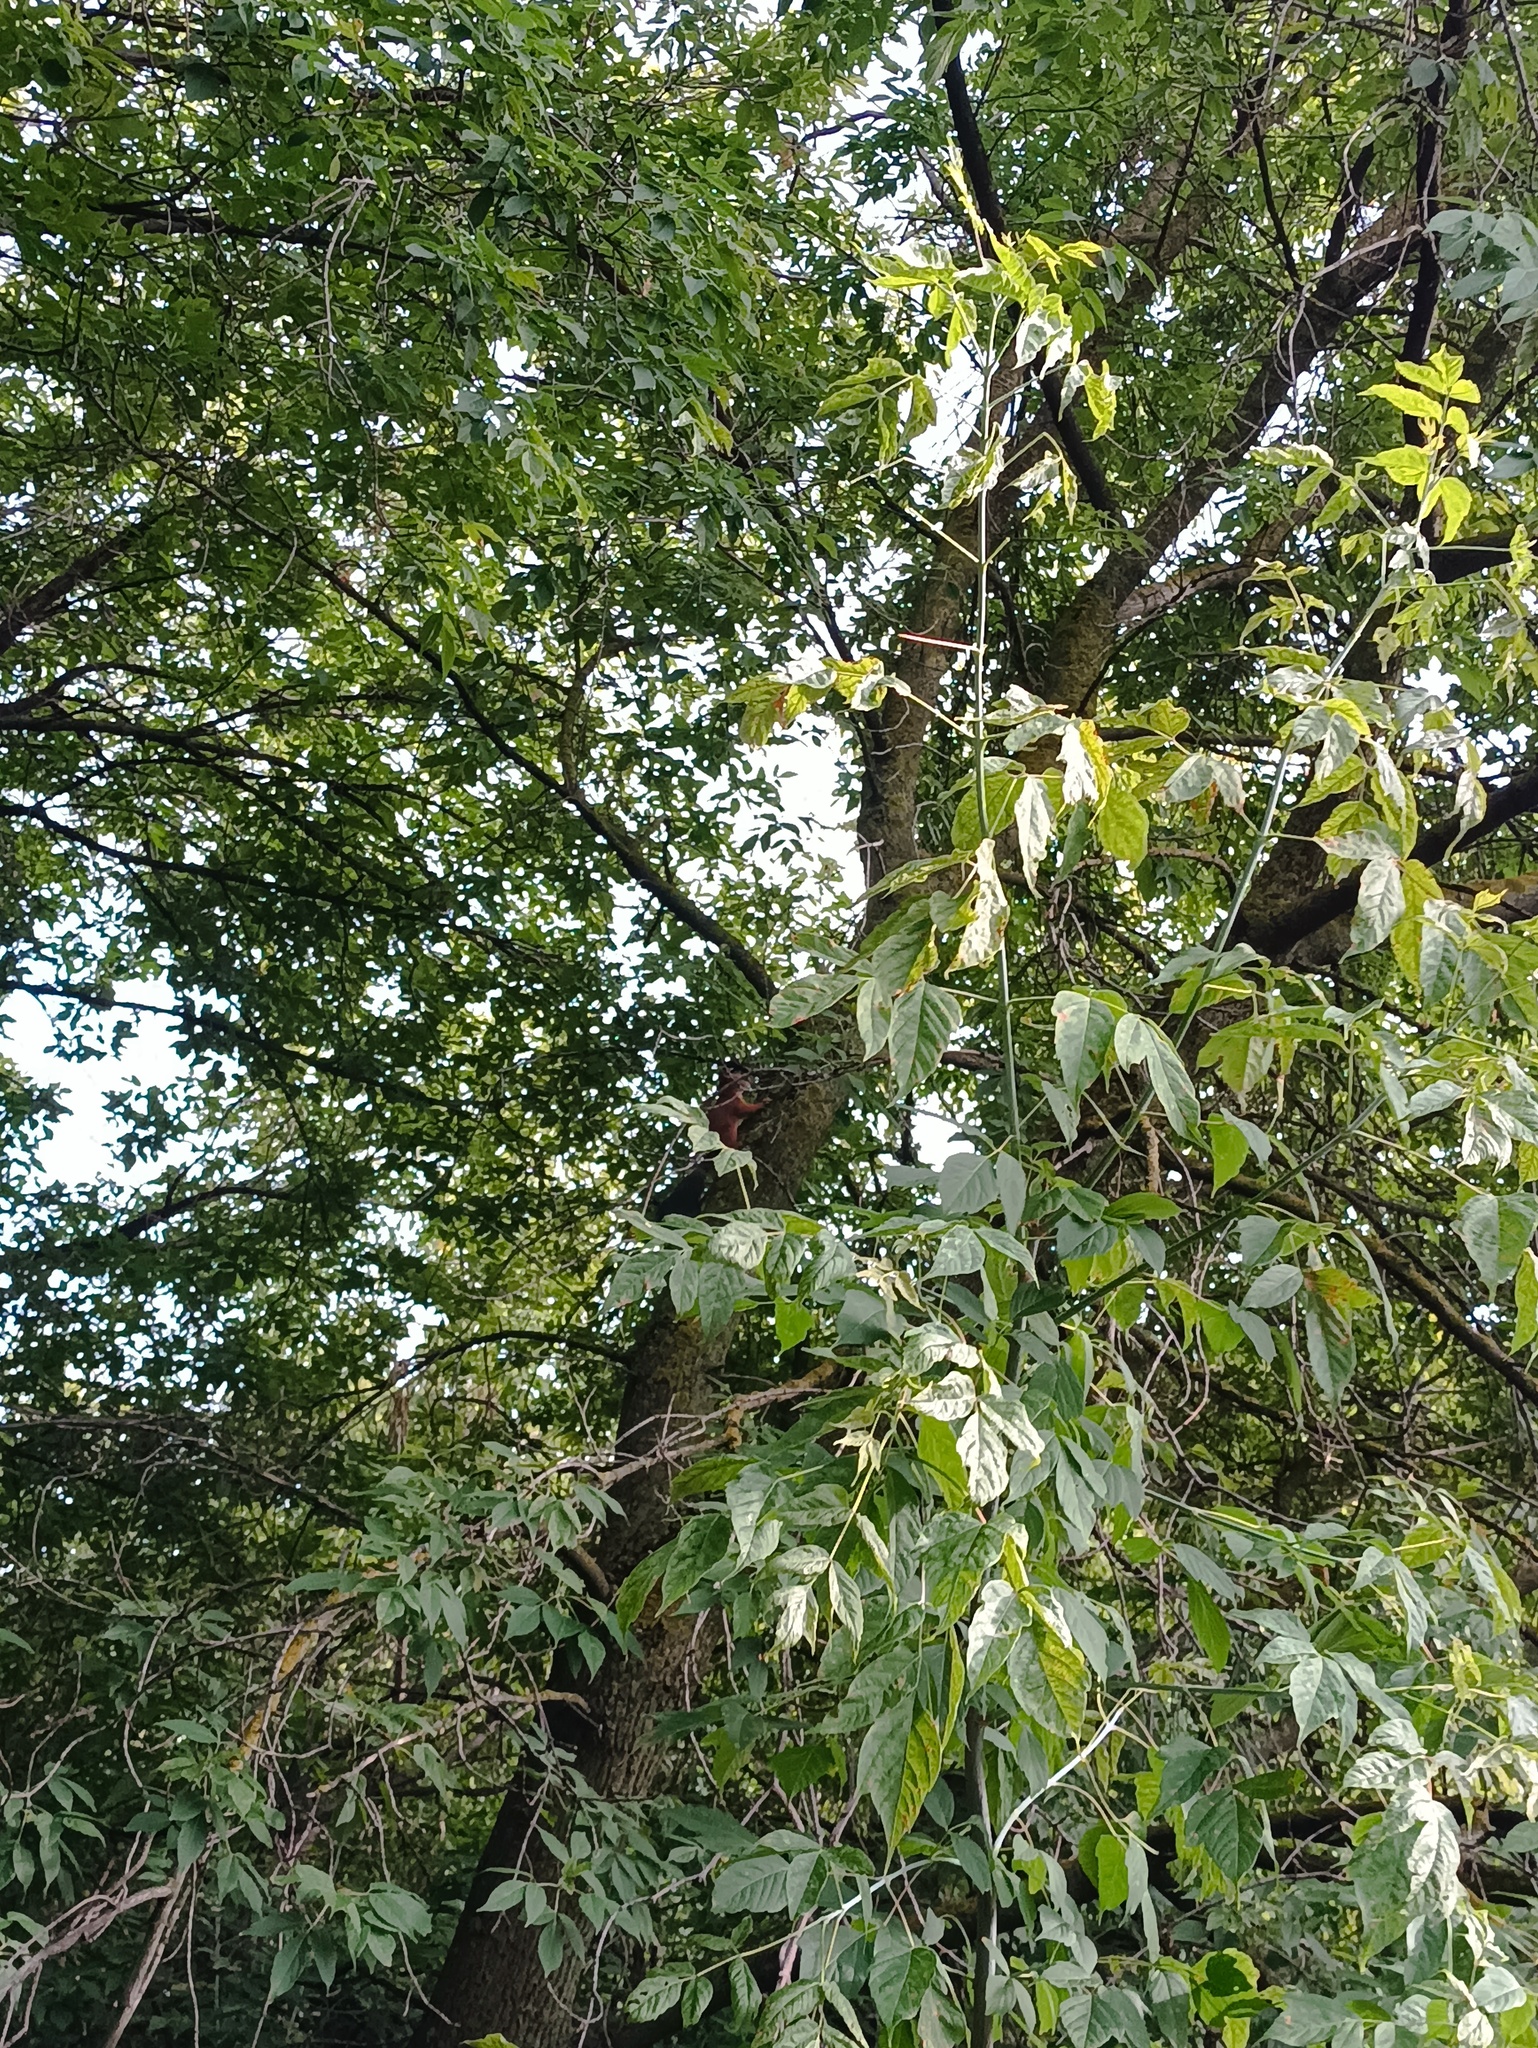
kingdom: Animalia
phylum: Chordata
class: Mammalia
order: Rodentia
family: Sciuridae
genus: Sciurus
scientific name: Sciurus vulgaris
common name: Eurasian red squirrel
